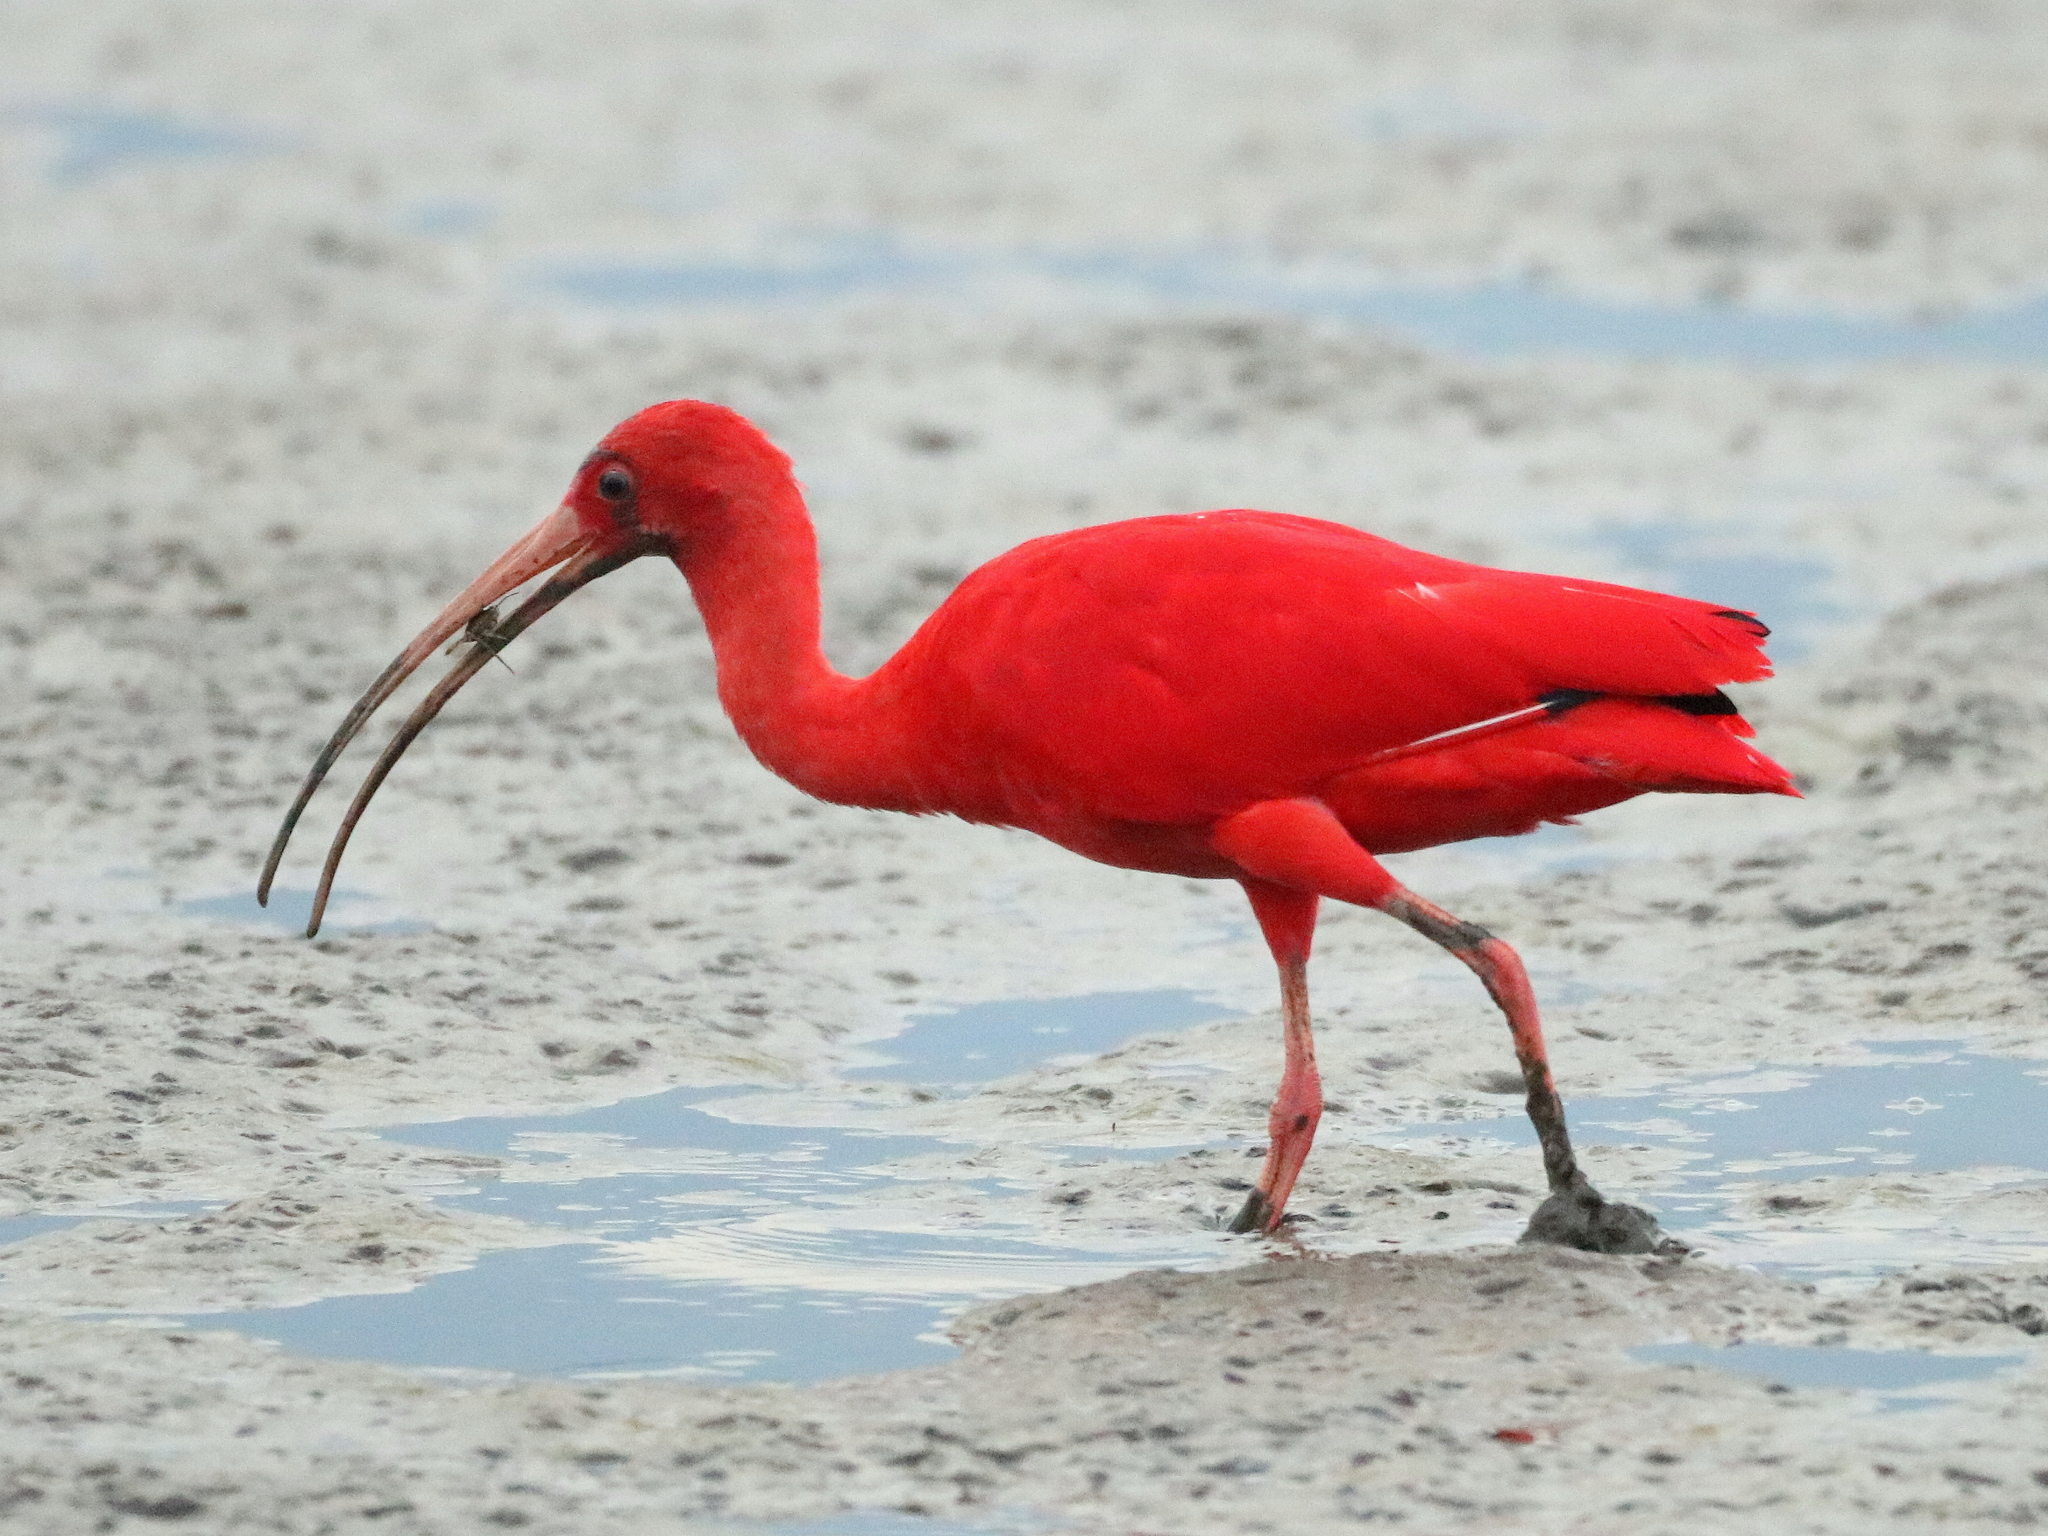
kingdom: Animalia
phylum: Chordata
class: Aves
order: Pelecaniformes
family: Threskiornithidae
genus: Eudocimus
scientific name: Eudocimus ruber
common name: Scarlet ibis
